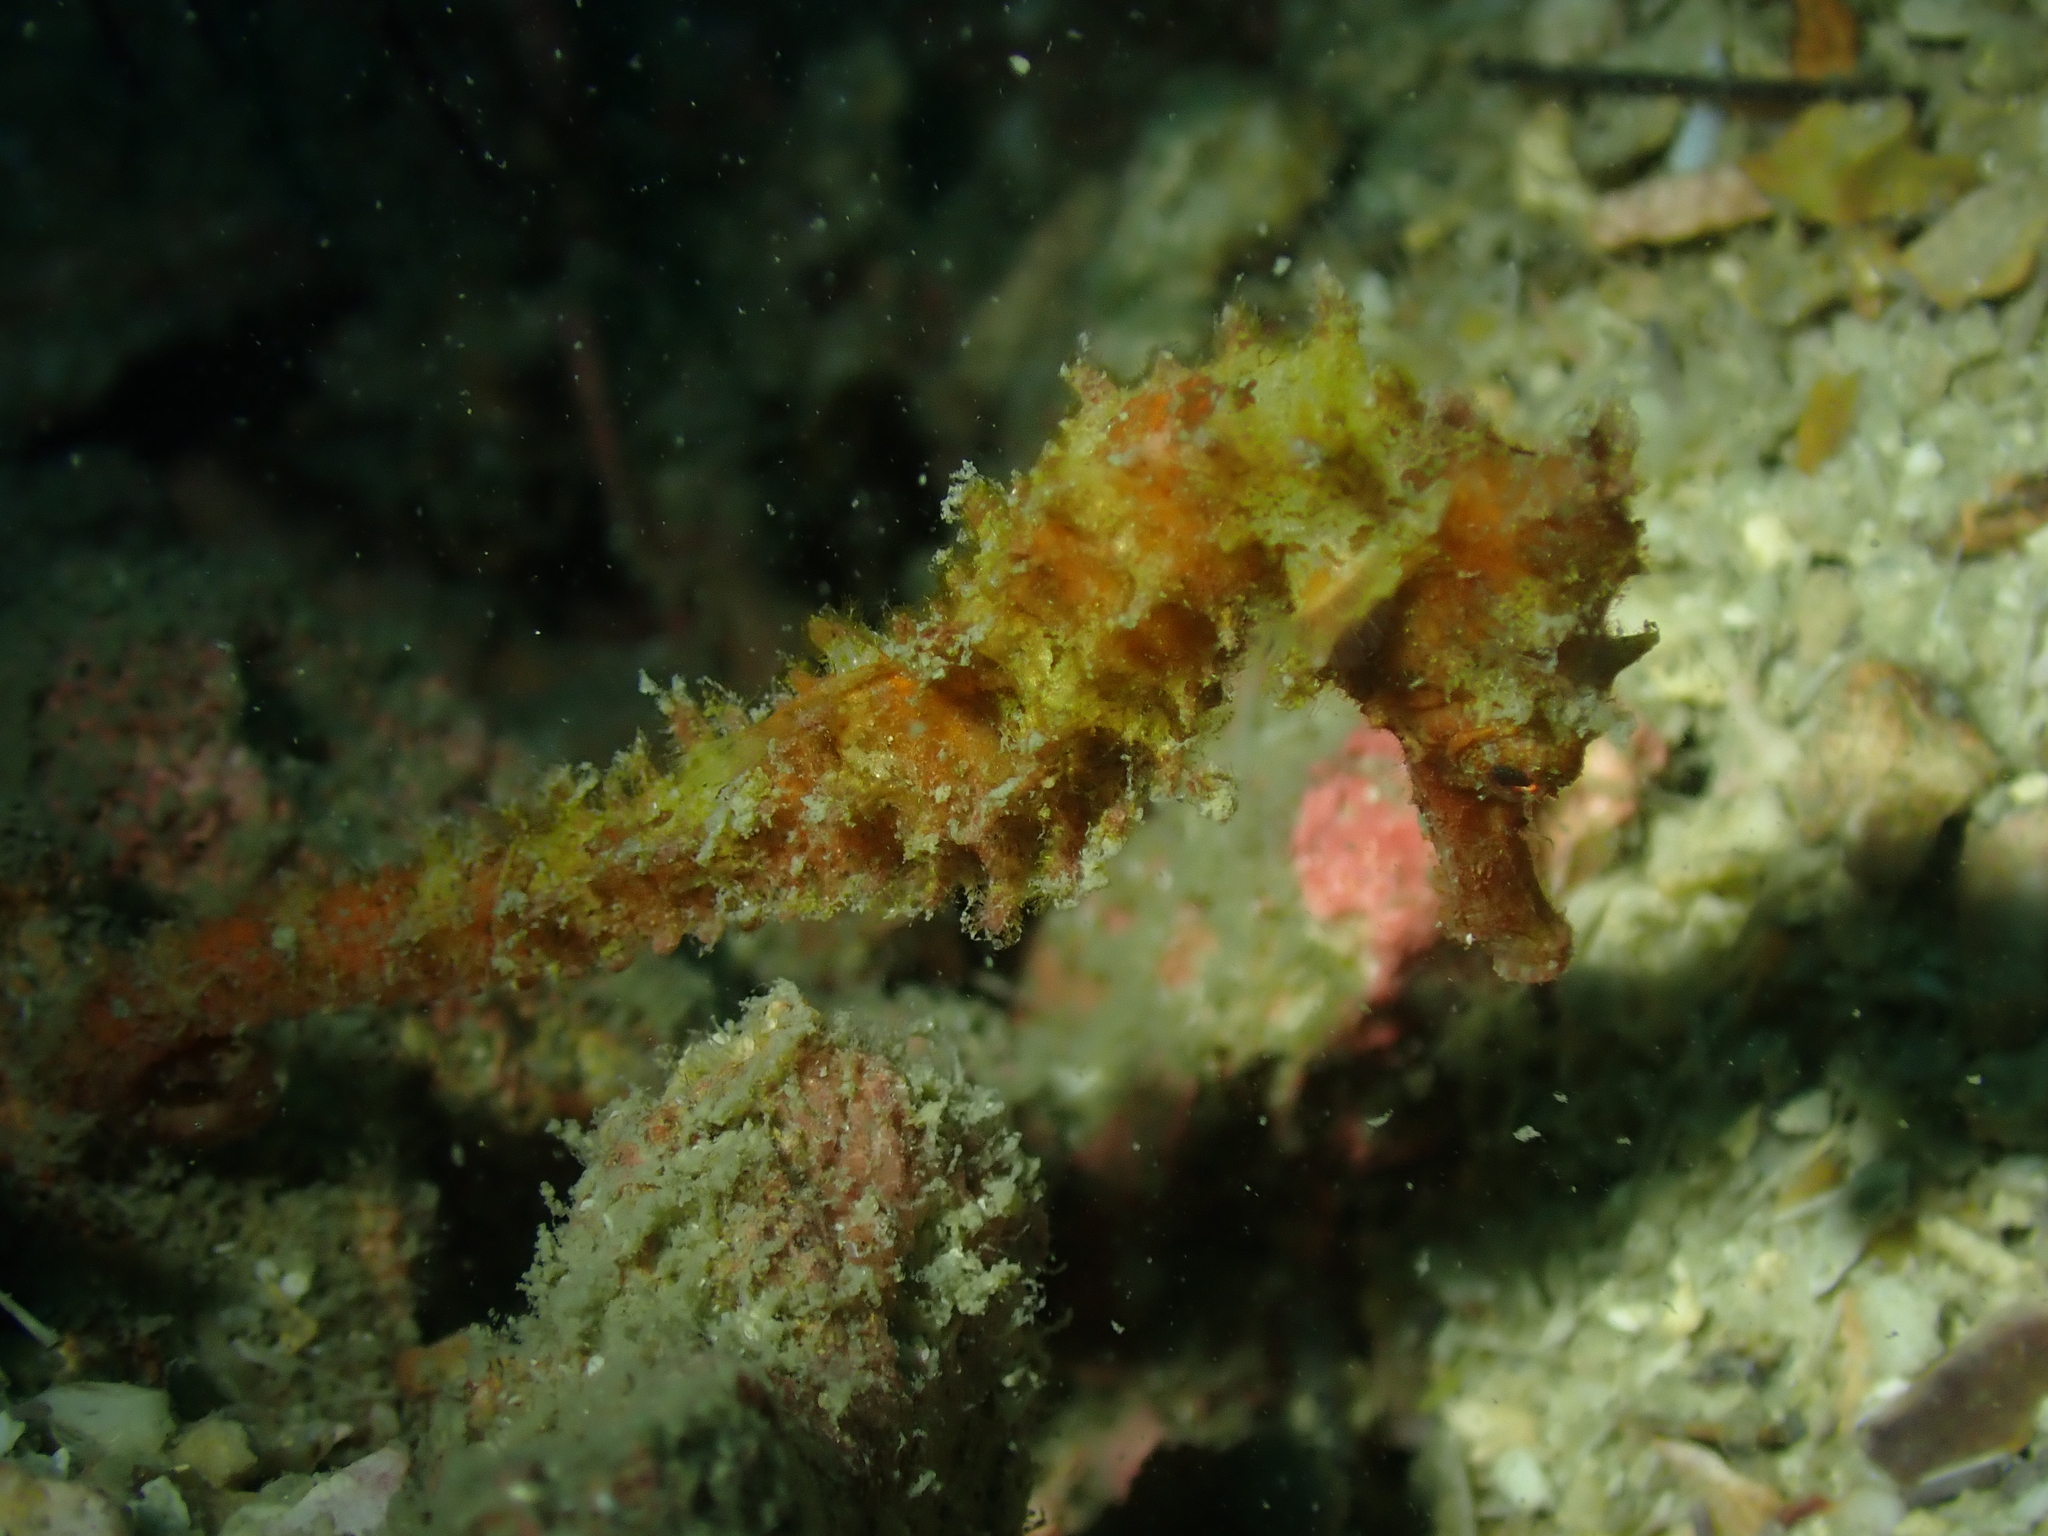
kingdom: Animalia
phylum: Chordata
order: Syngnathiformes
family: Syngnathidae
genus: Hippocampus
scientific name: Hippocampus spinosissimus
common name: Hedgehog seahorse
